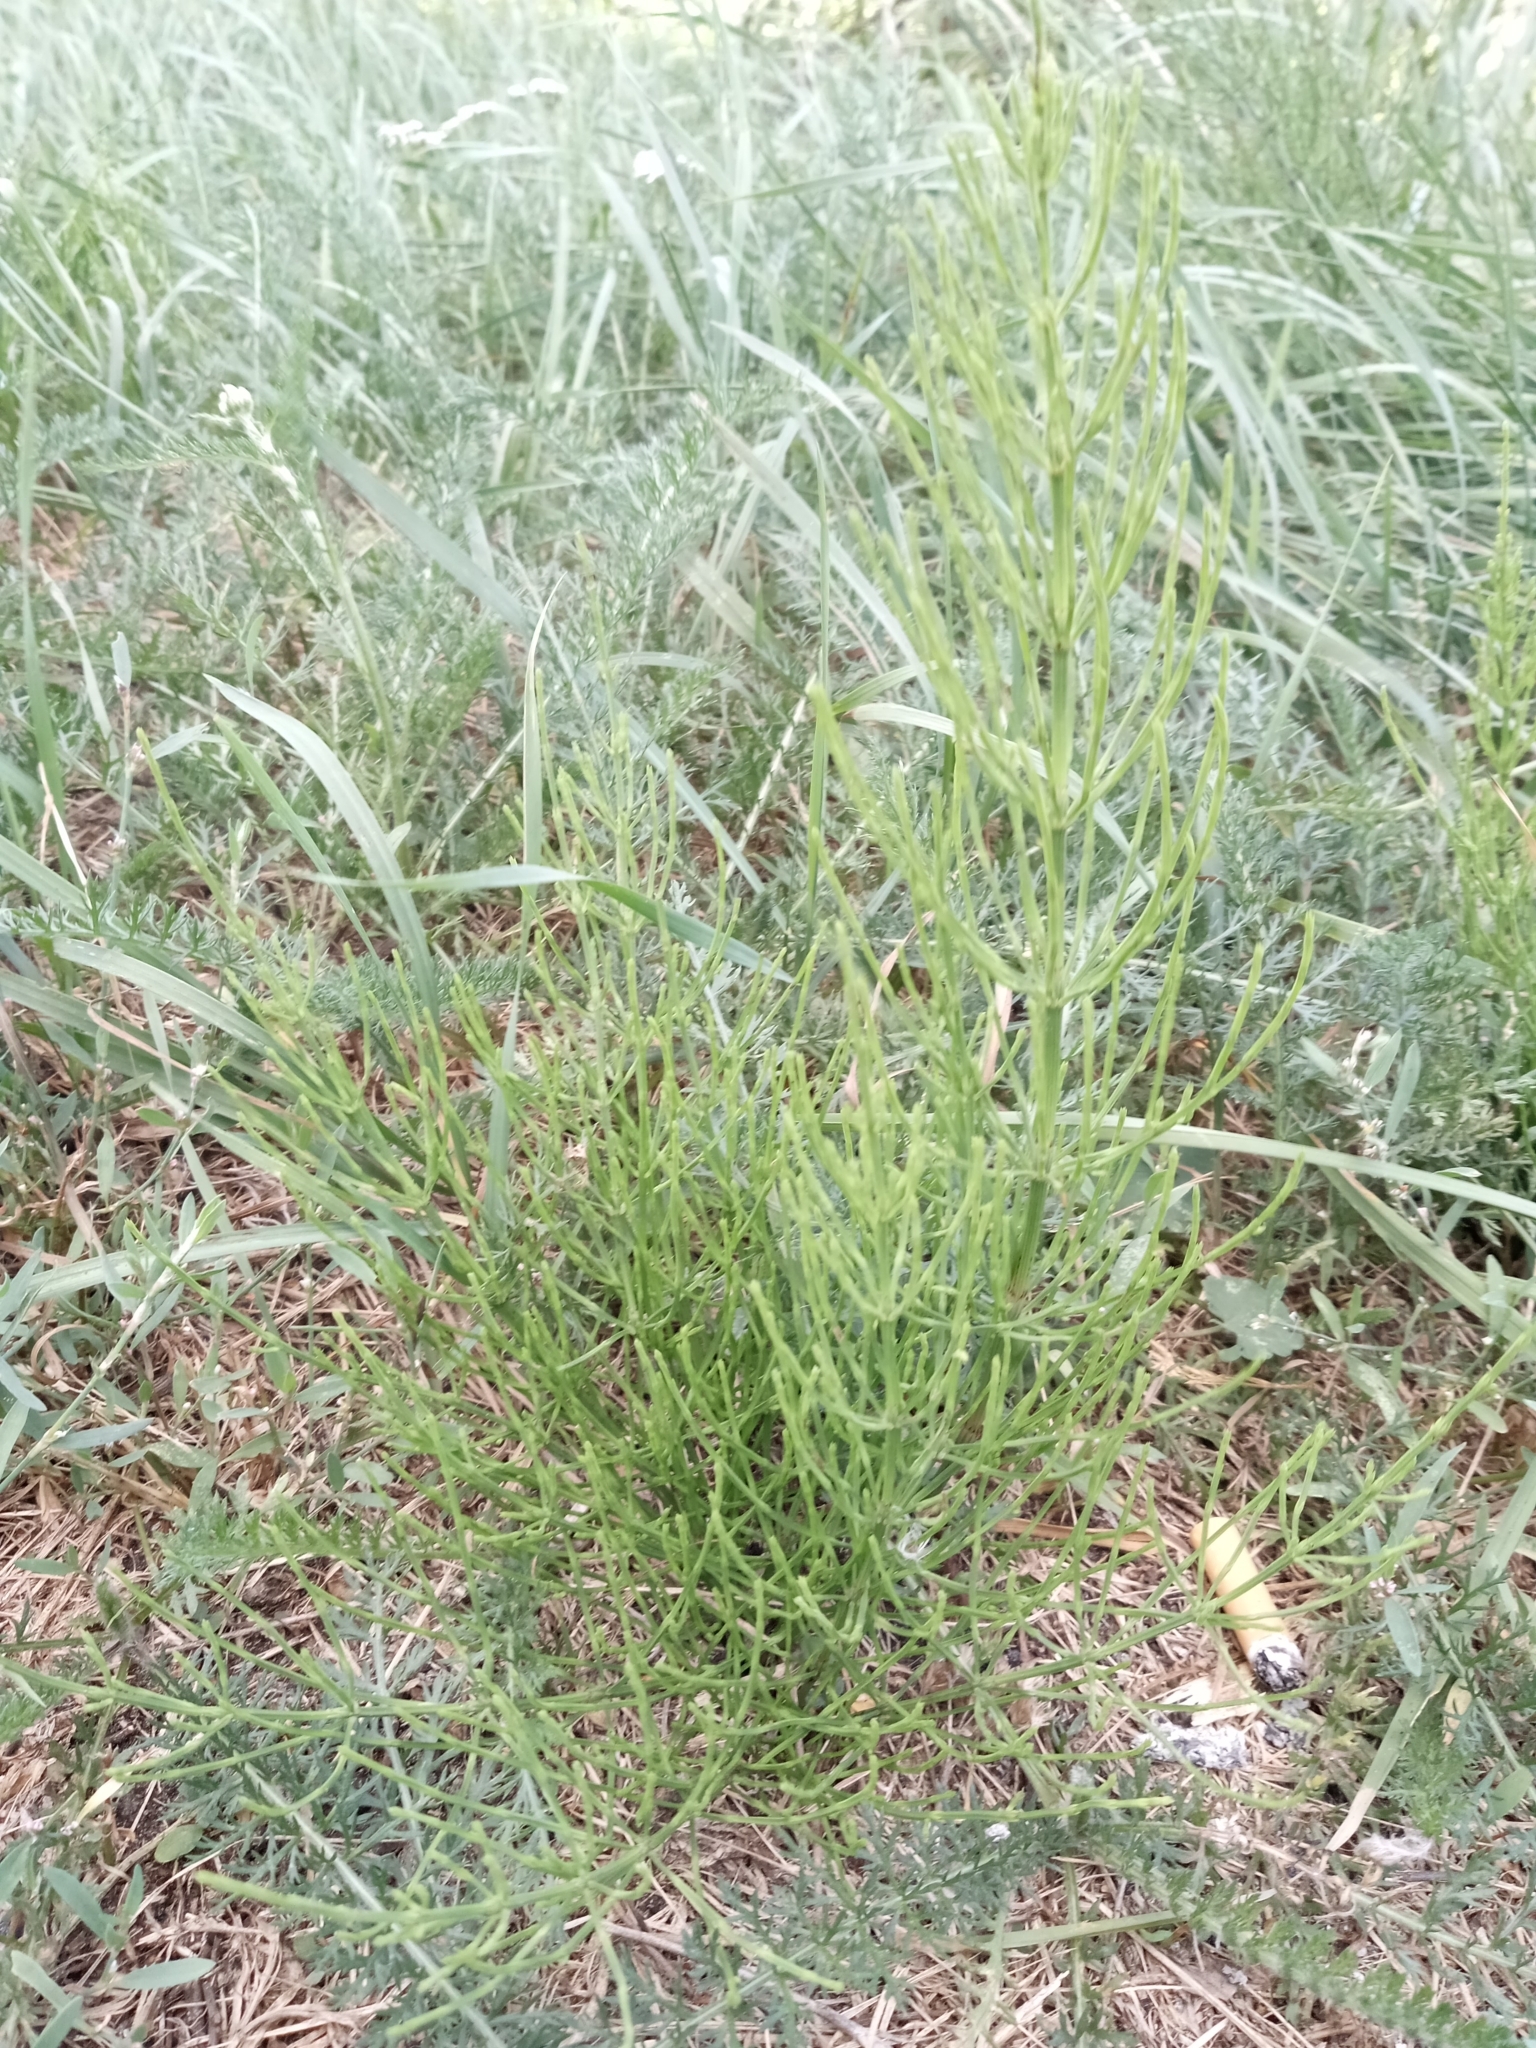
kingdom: Plantae
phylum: Tracheophyta
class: Polypodiopsida
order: Equisetales
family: Equisetaceae
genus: Equisetum
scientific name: Equisetum arvense
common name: Field horsetail
